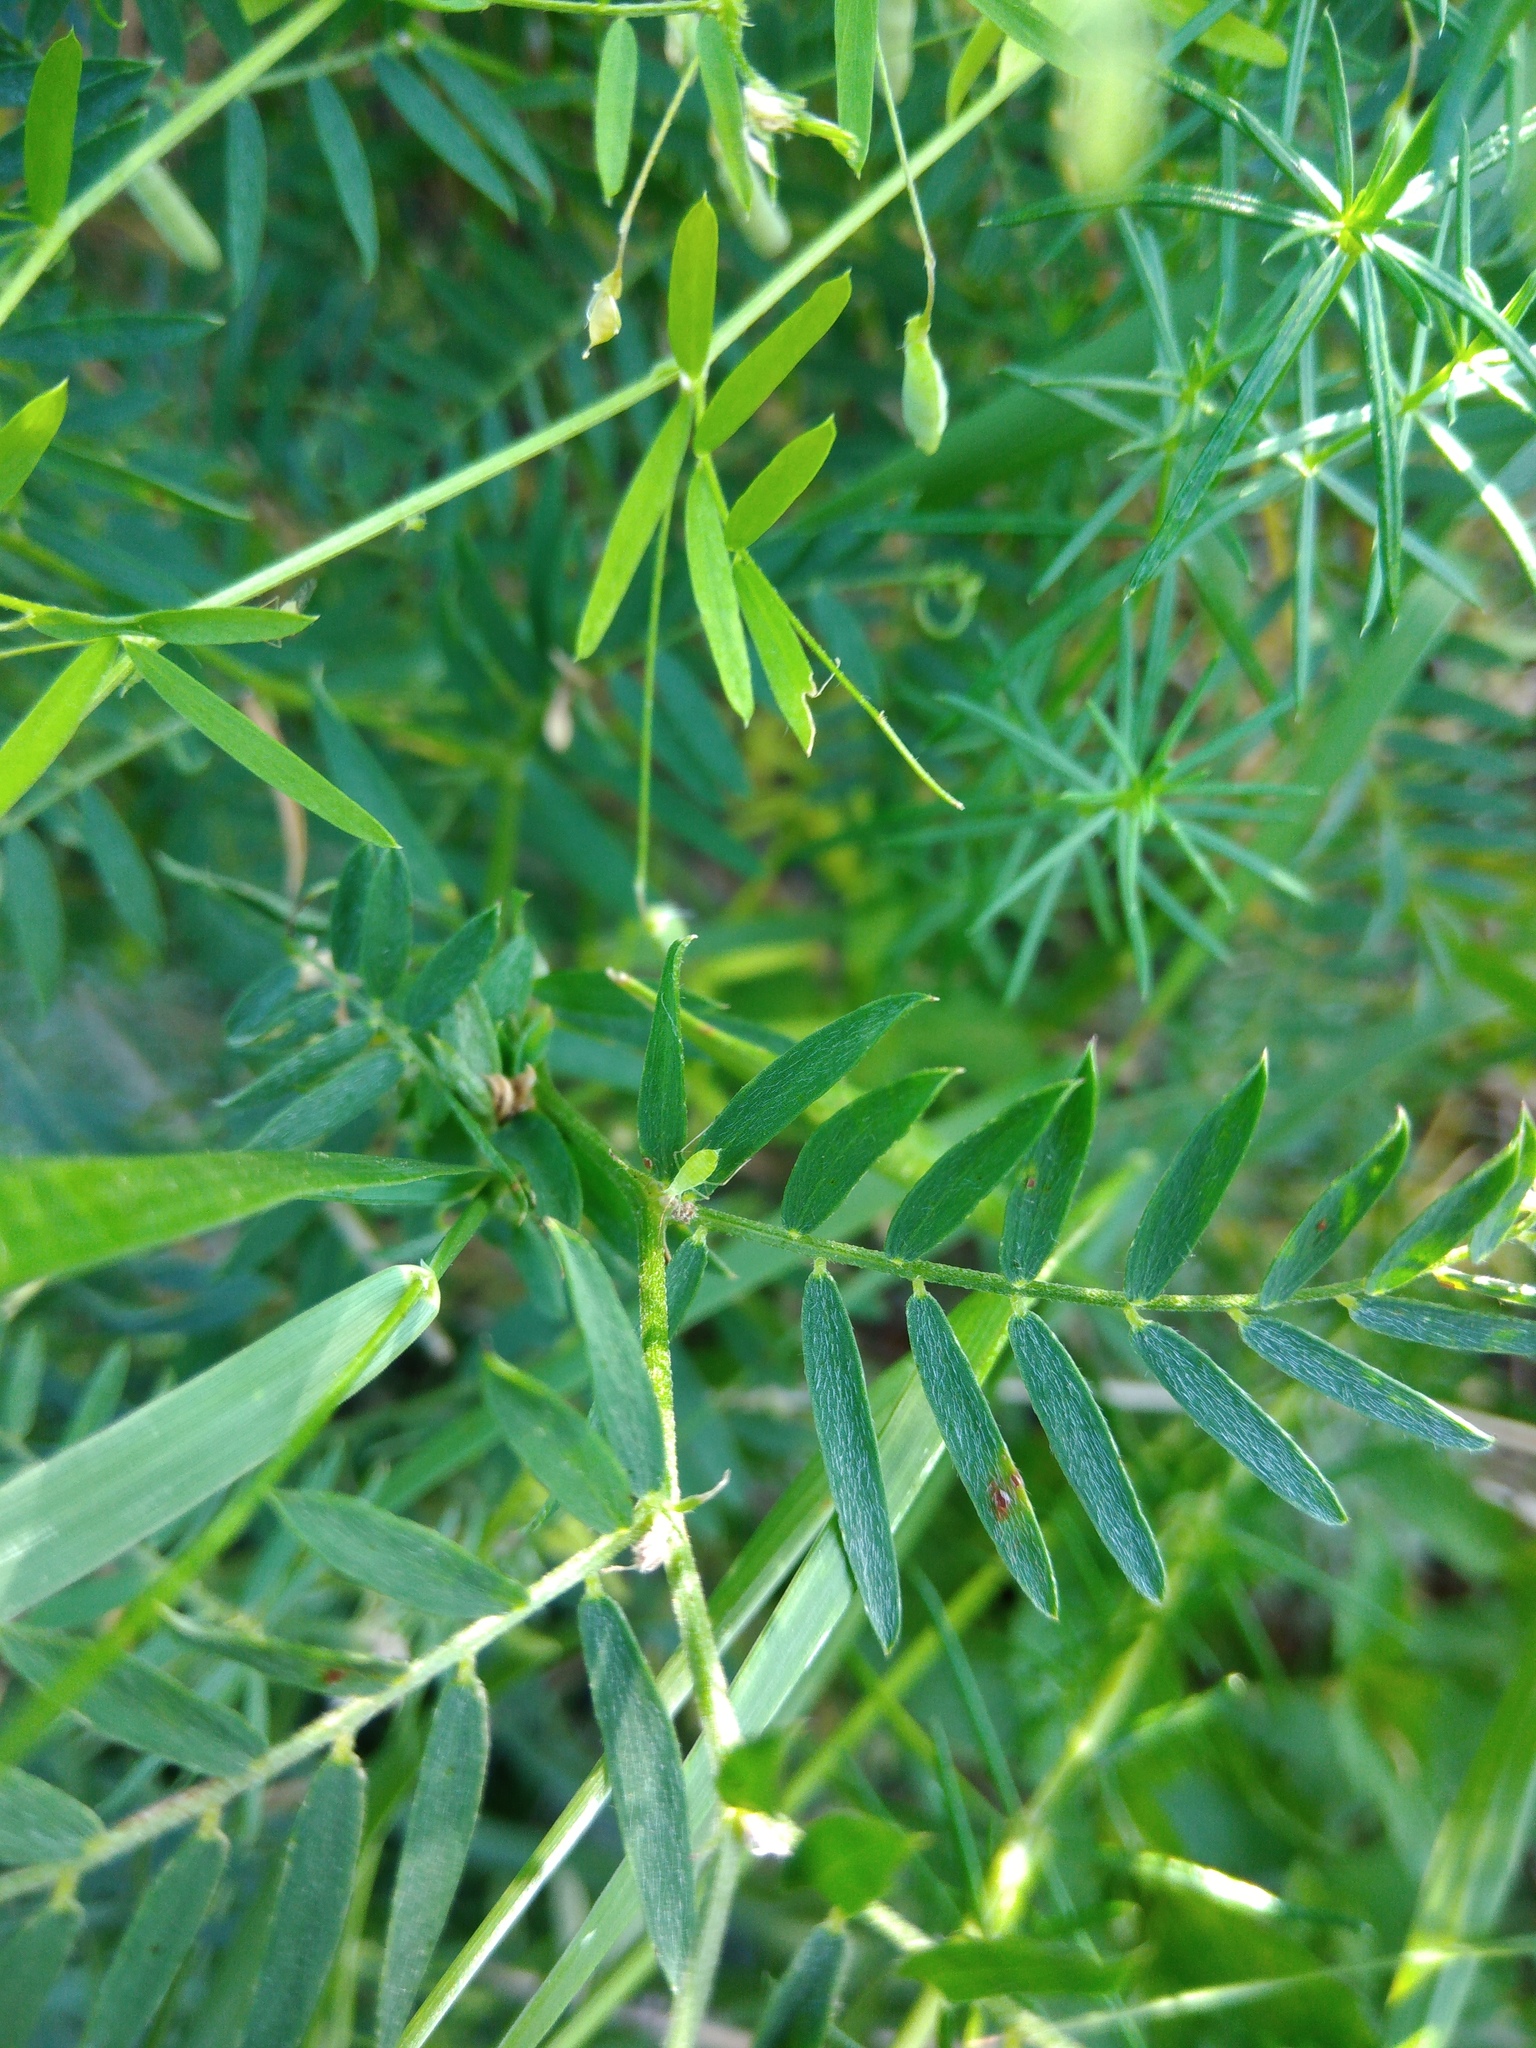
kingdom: Plantae
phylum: Tracheophyta
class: Magnoliopsida
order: Fabales
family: Fabaceae
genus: Vicia
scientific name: Vicia tenuifolia
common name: Fine-leaved vetch
